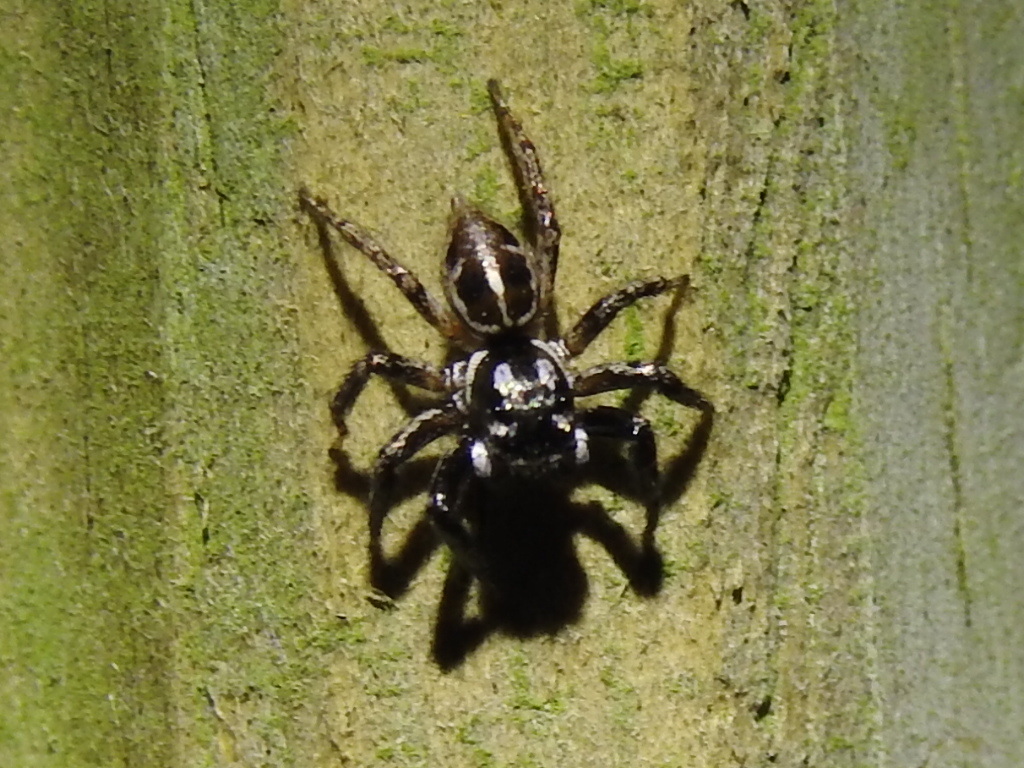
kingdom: Animalia
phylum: Arthropoda
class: Arachnida
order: Araneae
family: Salticidae
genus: Anasaitis
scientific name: Anasaitis canosa
